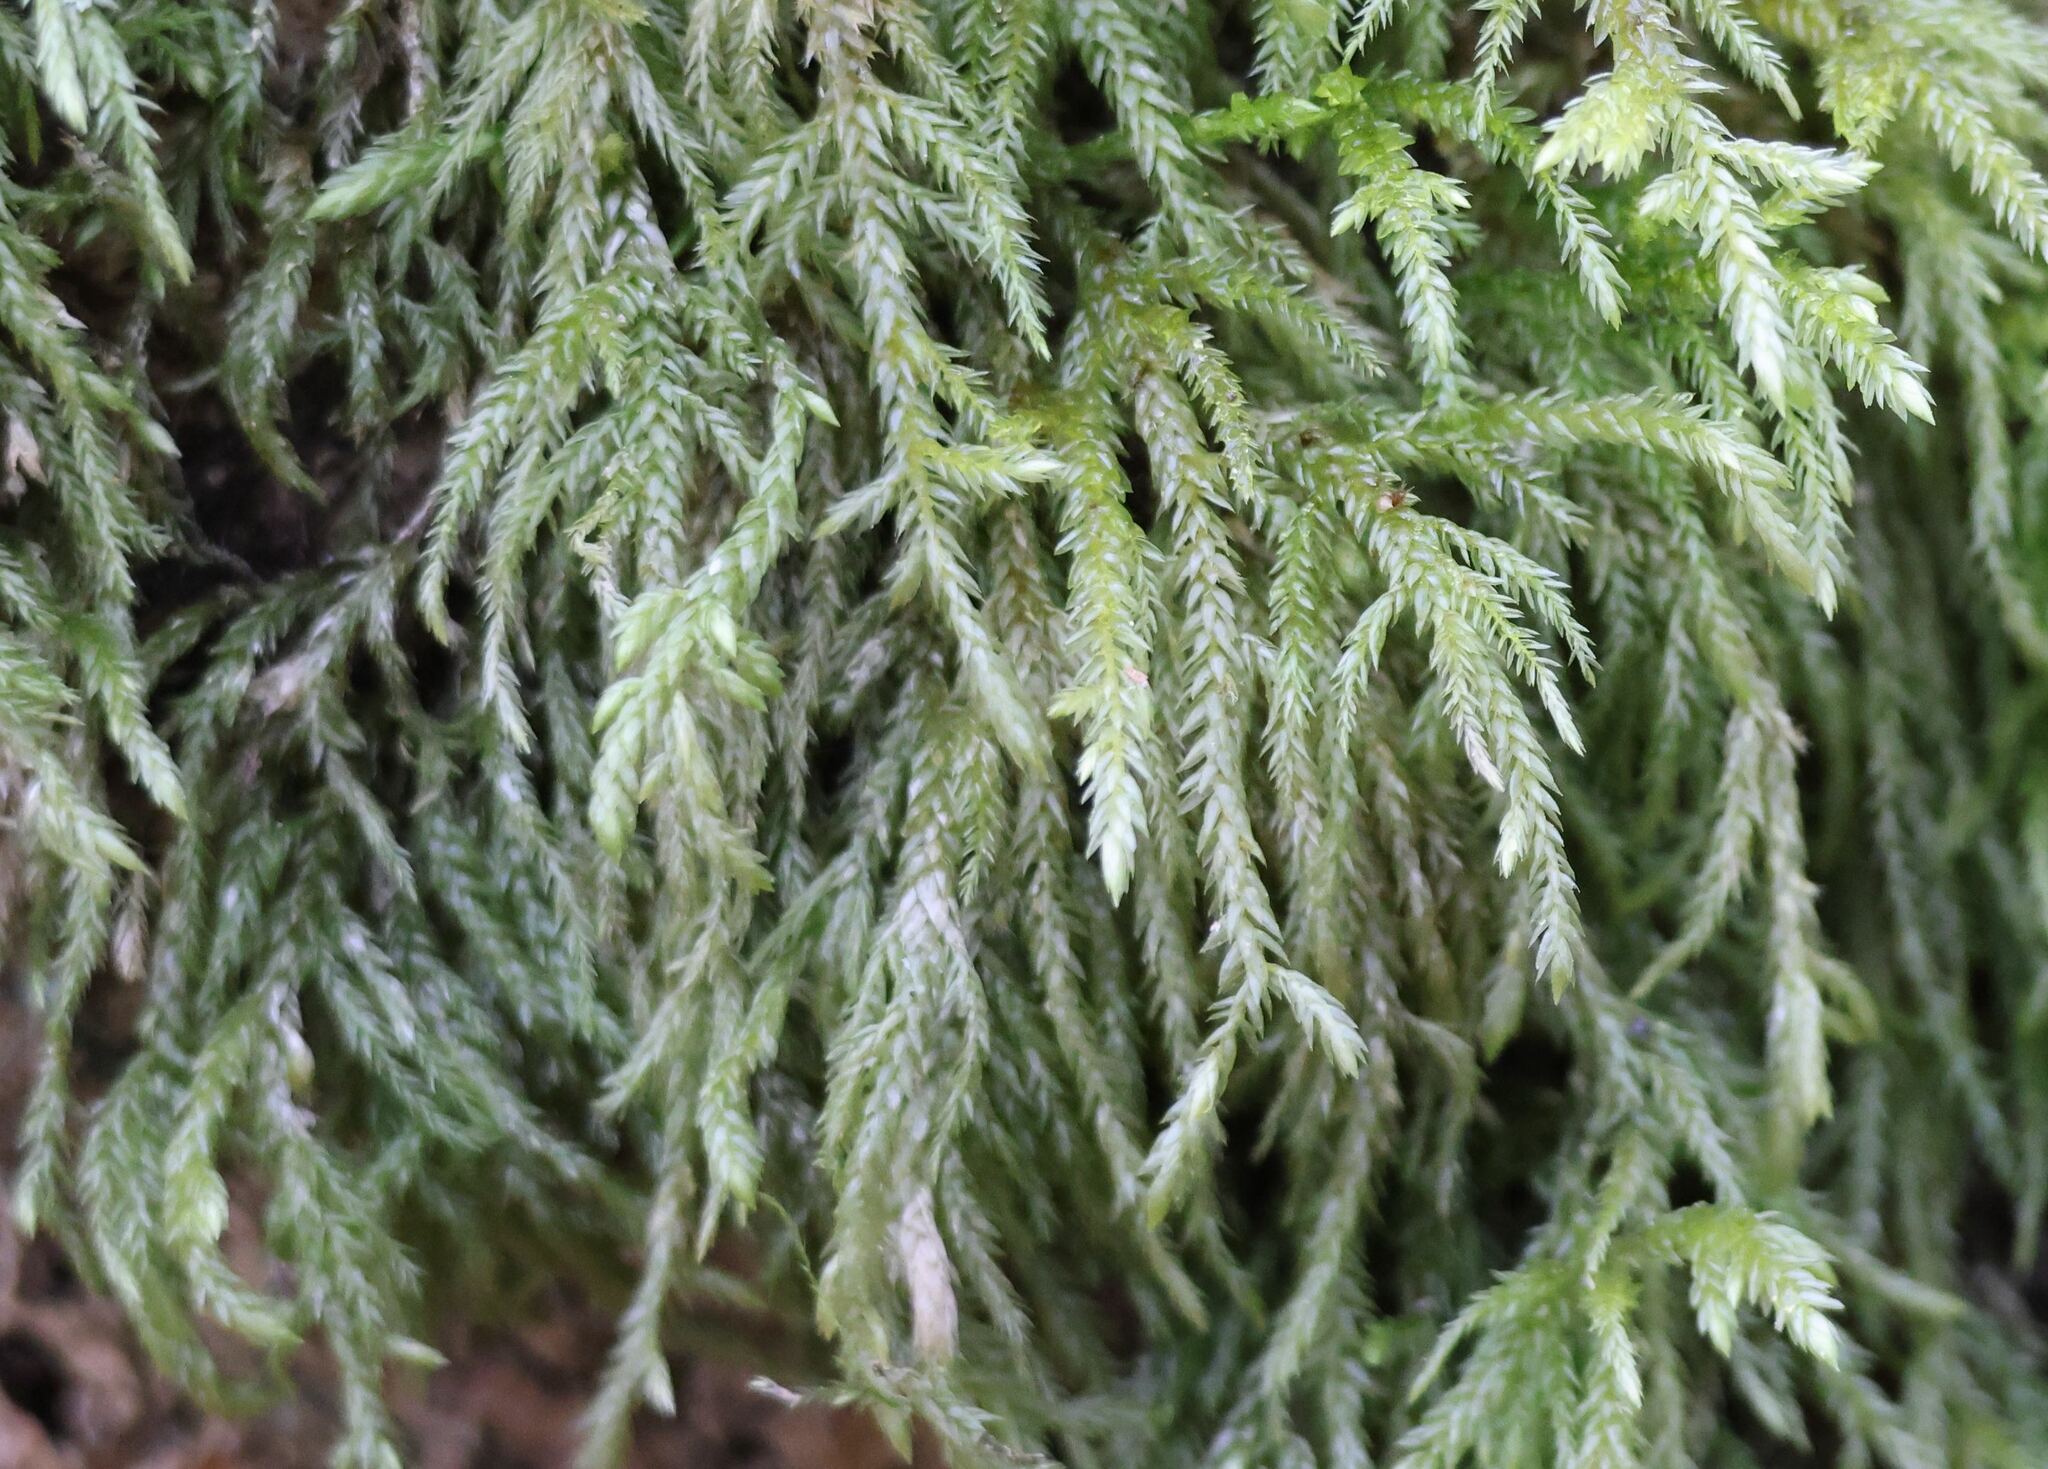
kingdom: Plantae
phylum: Bryophyta
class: Bryopsida
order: Hypnales
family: Lembophyllaceae
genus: Isothecium
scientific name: Isothecium alopecuroides
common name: Larger mouse-tail moss
